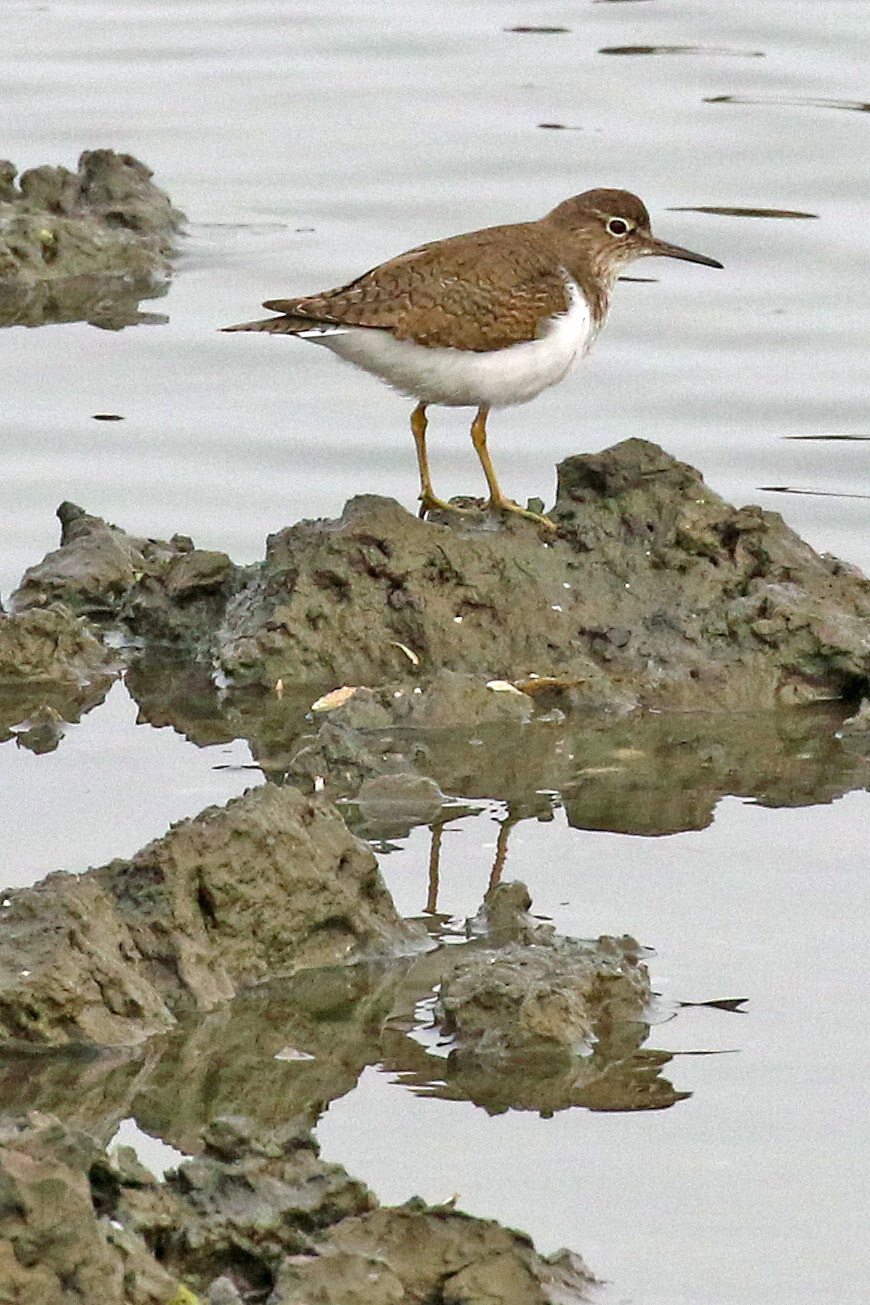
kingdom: Animalia
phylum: Chordata
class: Aves
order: Charadriiformes
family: Scolopacidae
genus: Actitis
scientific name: Actitis hypoleucos
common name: Common sandpiper
